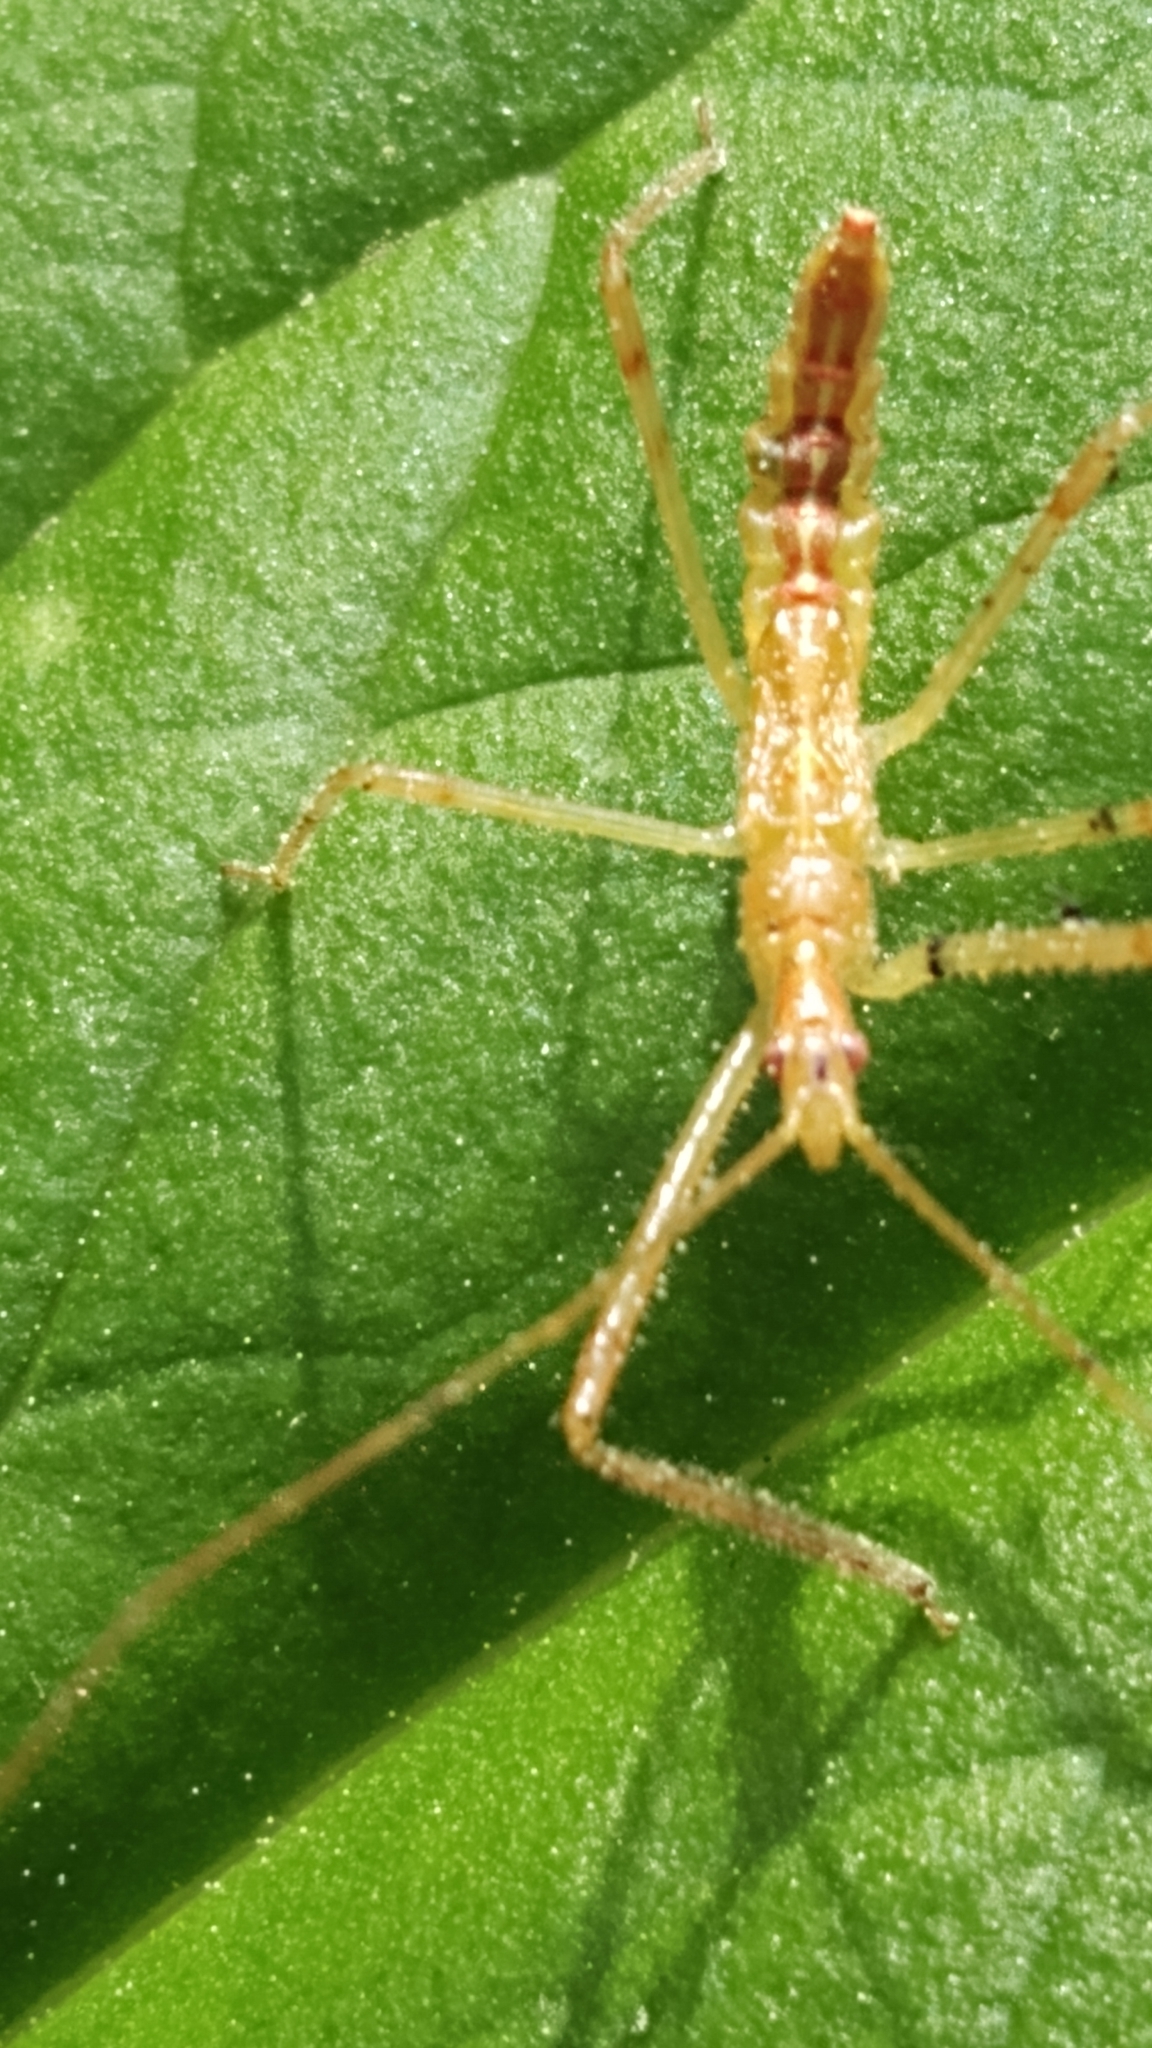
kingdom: Animalia
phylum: Arthropoda
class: Insecta
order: Hemiptera
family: Reduviidae
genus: Zelus
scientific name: Zelus luridus
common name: Pale green assassin bug
